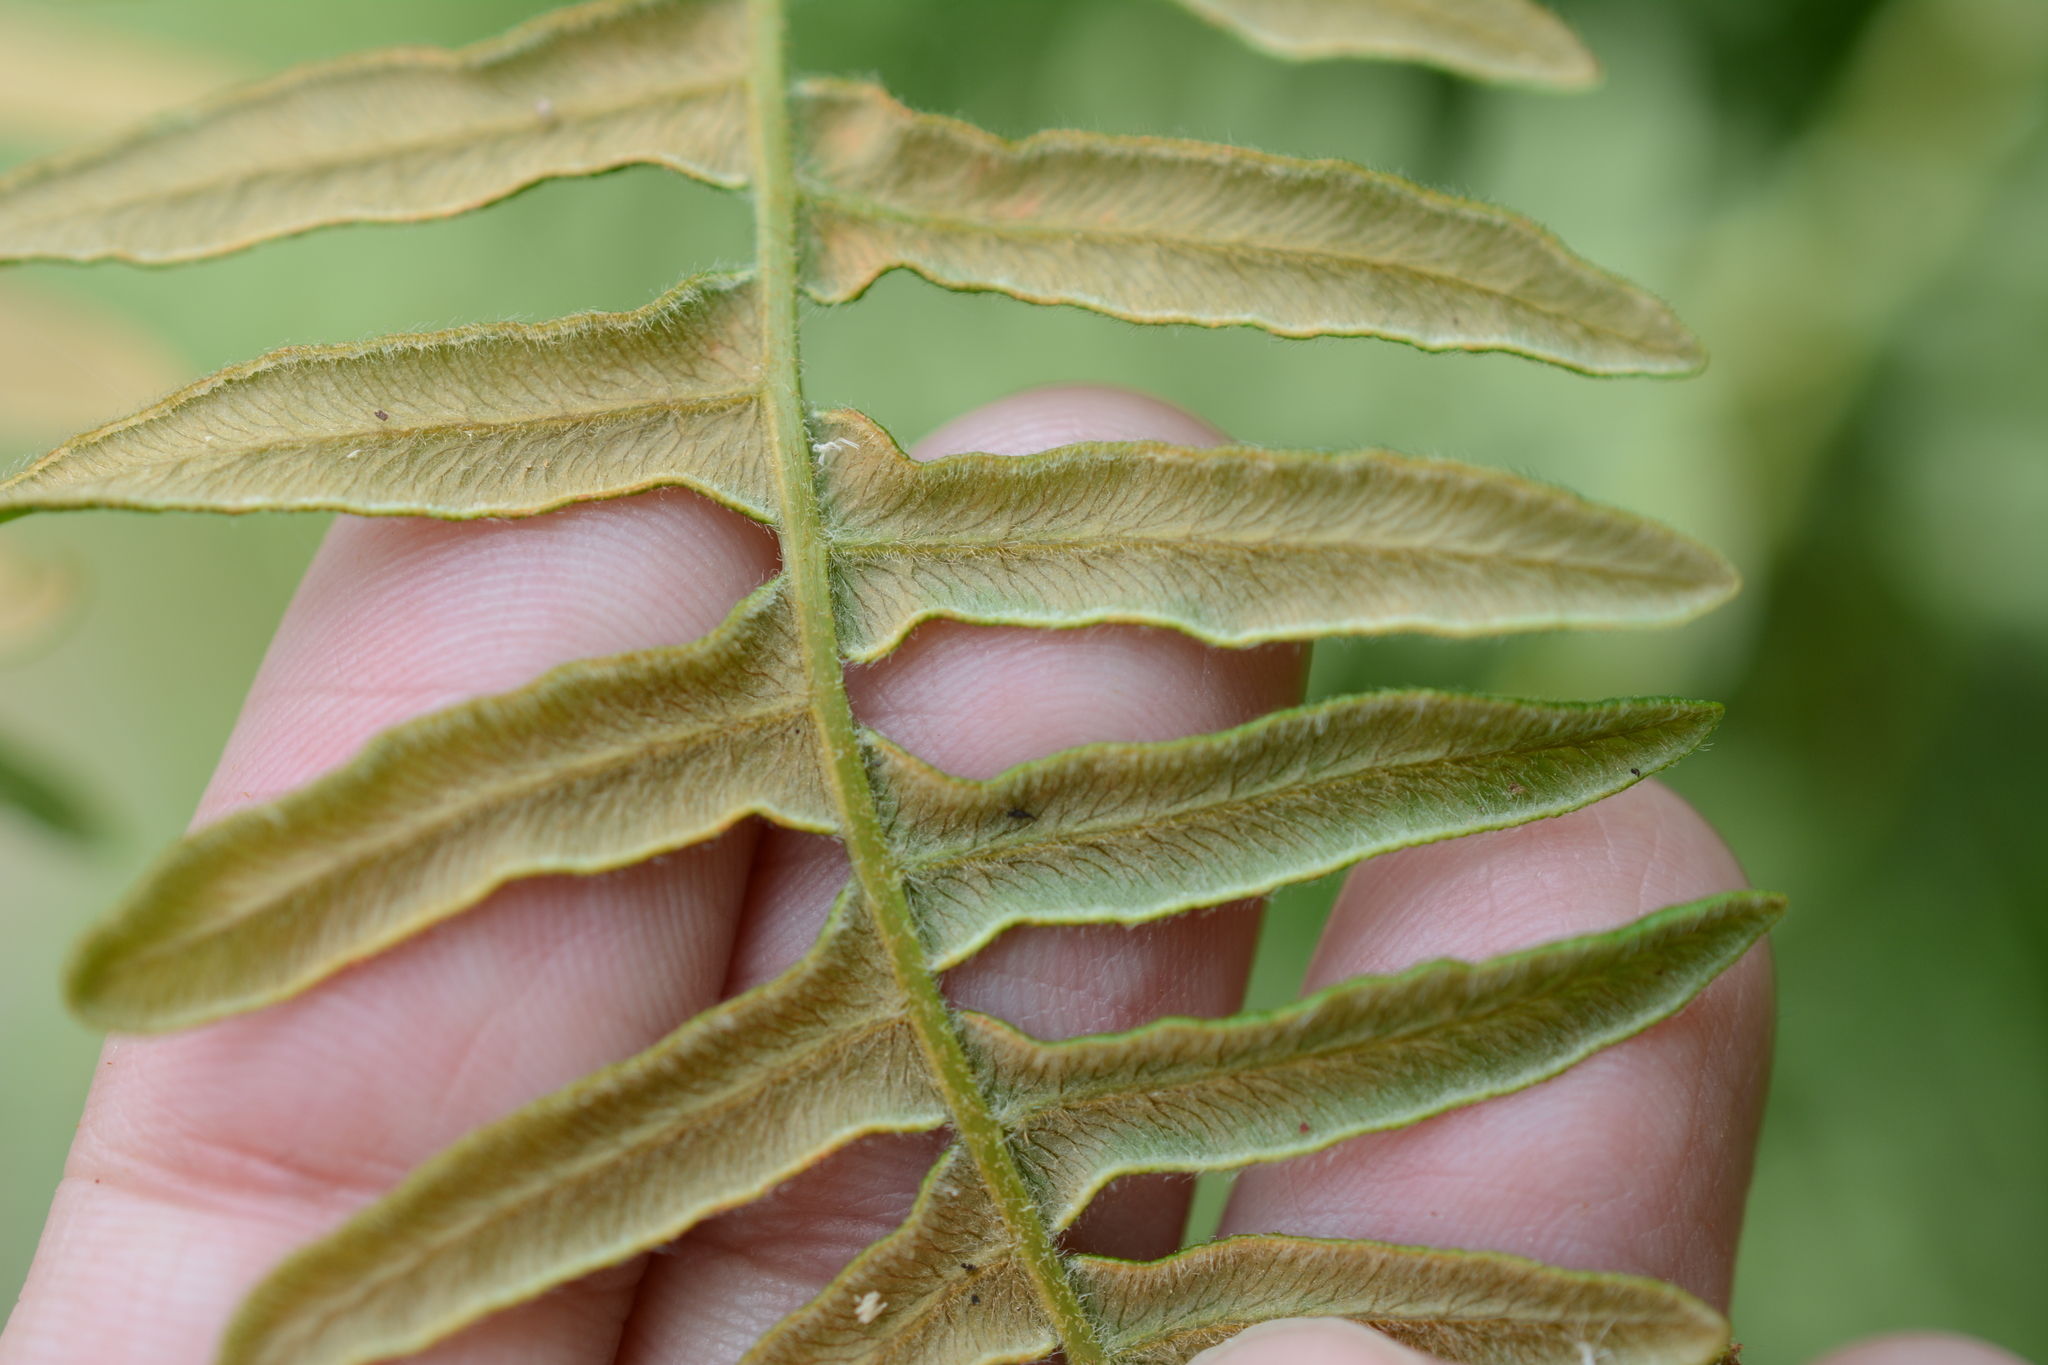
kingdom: Plantae
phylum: Tracheophyta
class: Polypodiopsida
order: Polypodiales
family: Dennstaedtiaceae
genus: Pteridium
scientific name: Pteridium aquilinum
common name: Bracken
